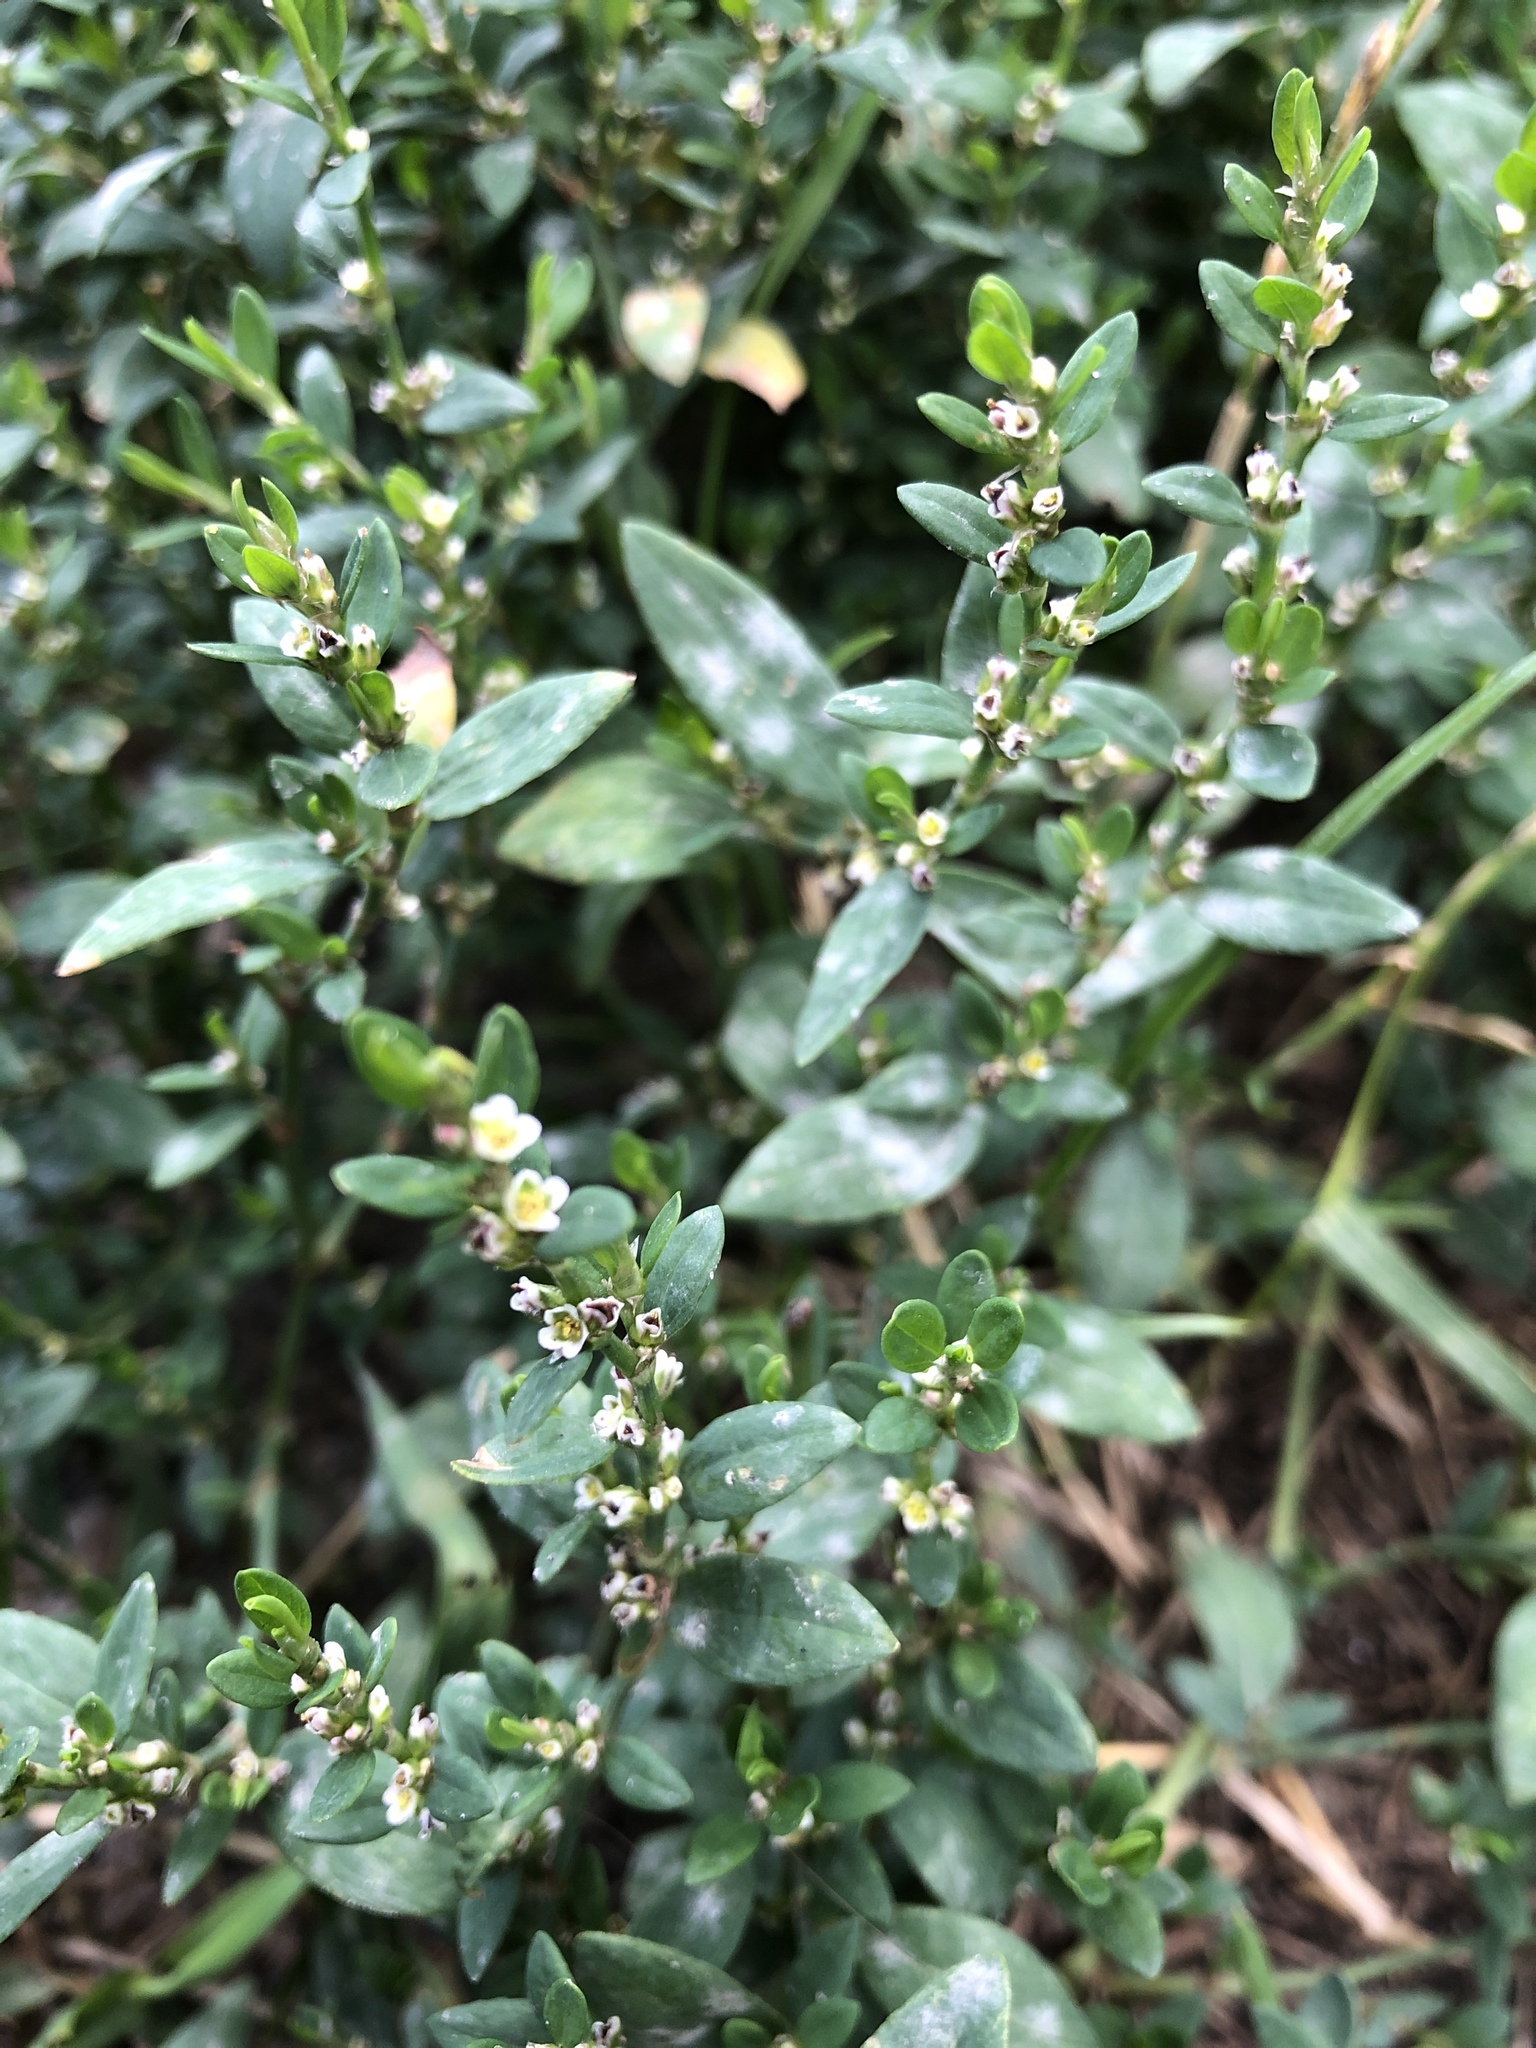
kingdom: Plantae
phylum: Tracheophyta
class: Magnoliopsida
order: Caryophyllales
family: Polygonaceae
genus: Polygonum
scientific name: Polygonum
